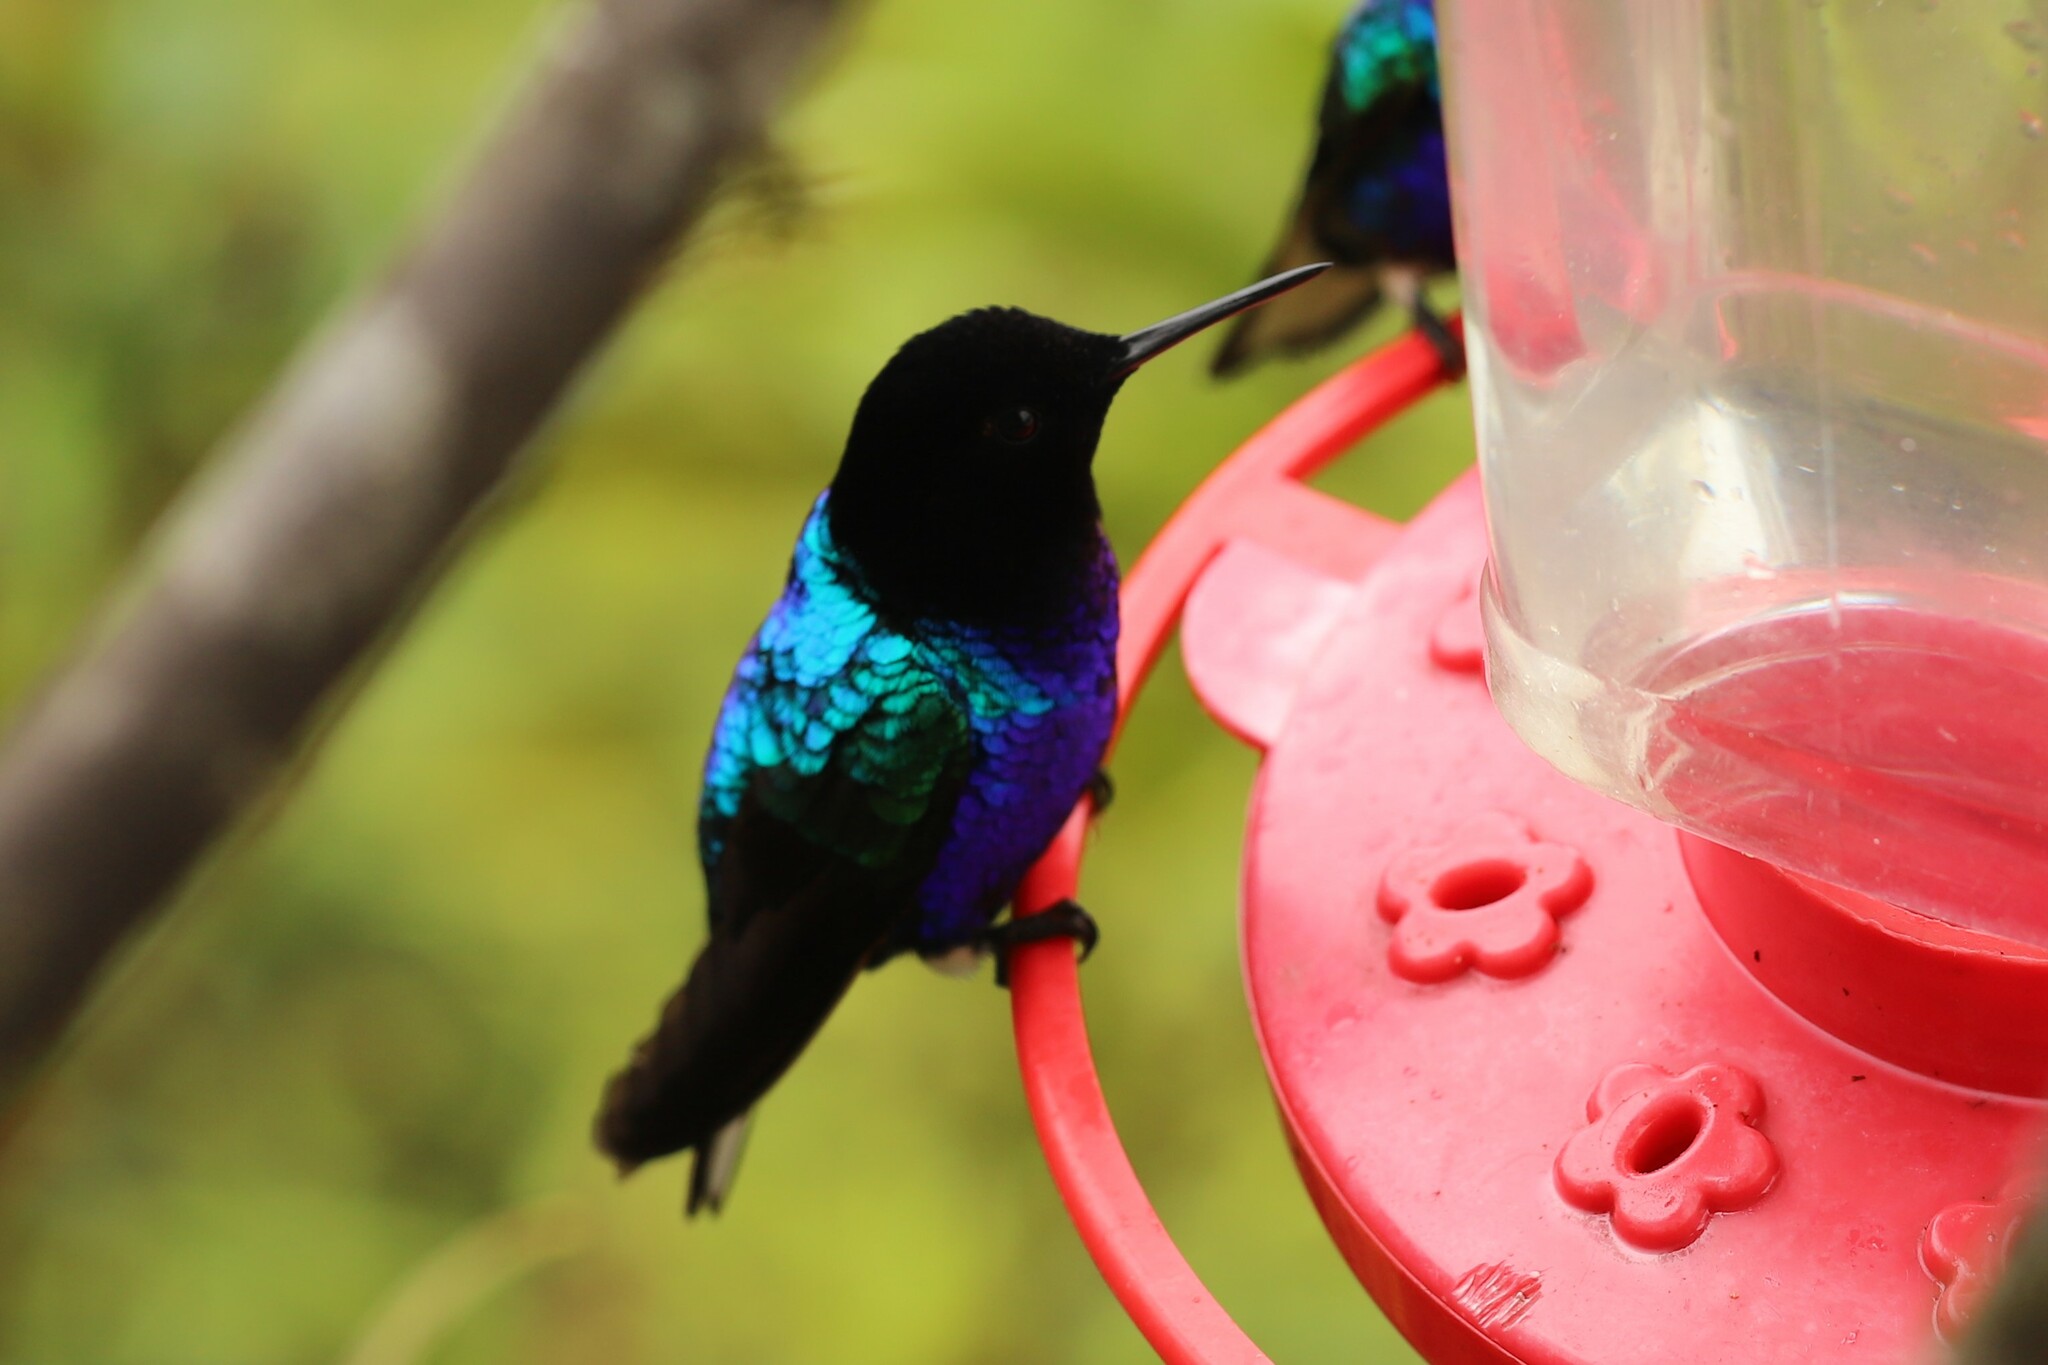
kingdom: Animalia
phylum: Chordata
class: Aves
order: Apodiformes
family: Trochilidae
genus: Boissonneaua
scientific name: Boissonneaua jardini
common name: Velvet-purple coronet
